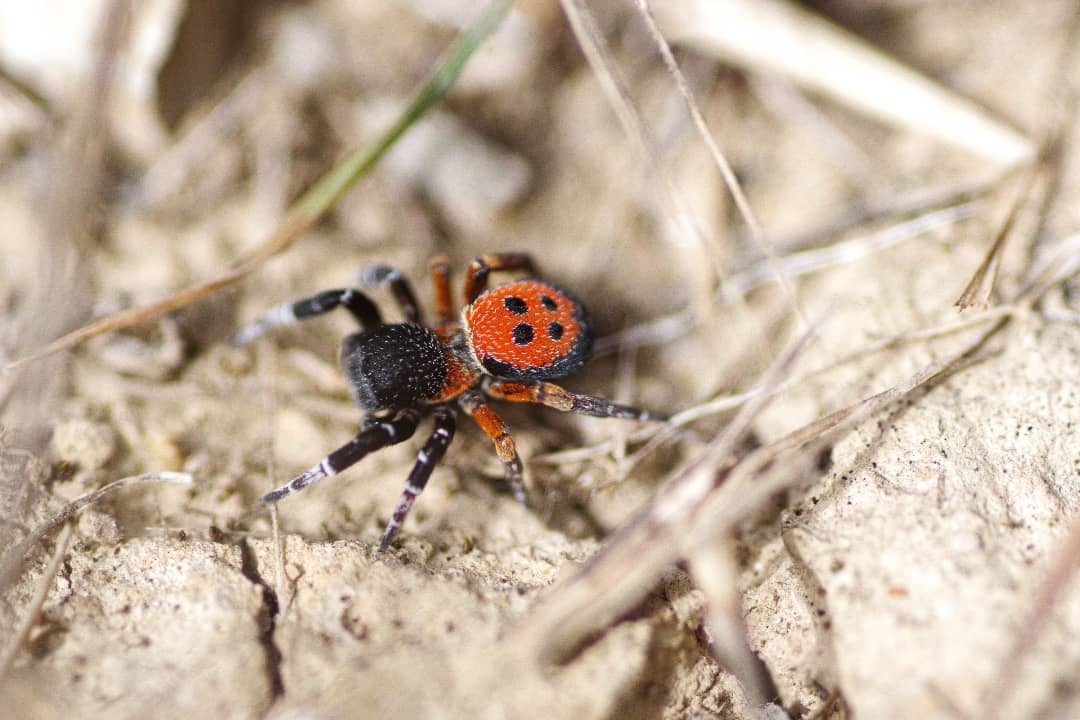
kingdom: Animalia
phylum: Arthropoda
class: Arachnida
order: Araneae
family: Eresidae
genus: Eresus
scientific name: Eresus kollari
